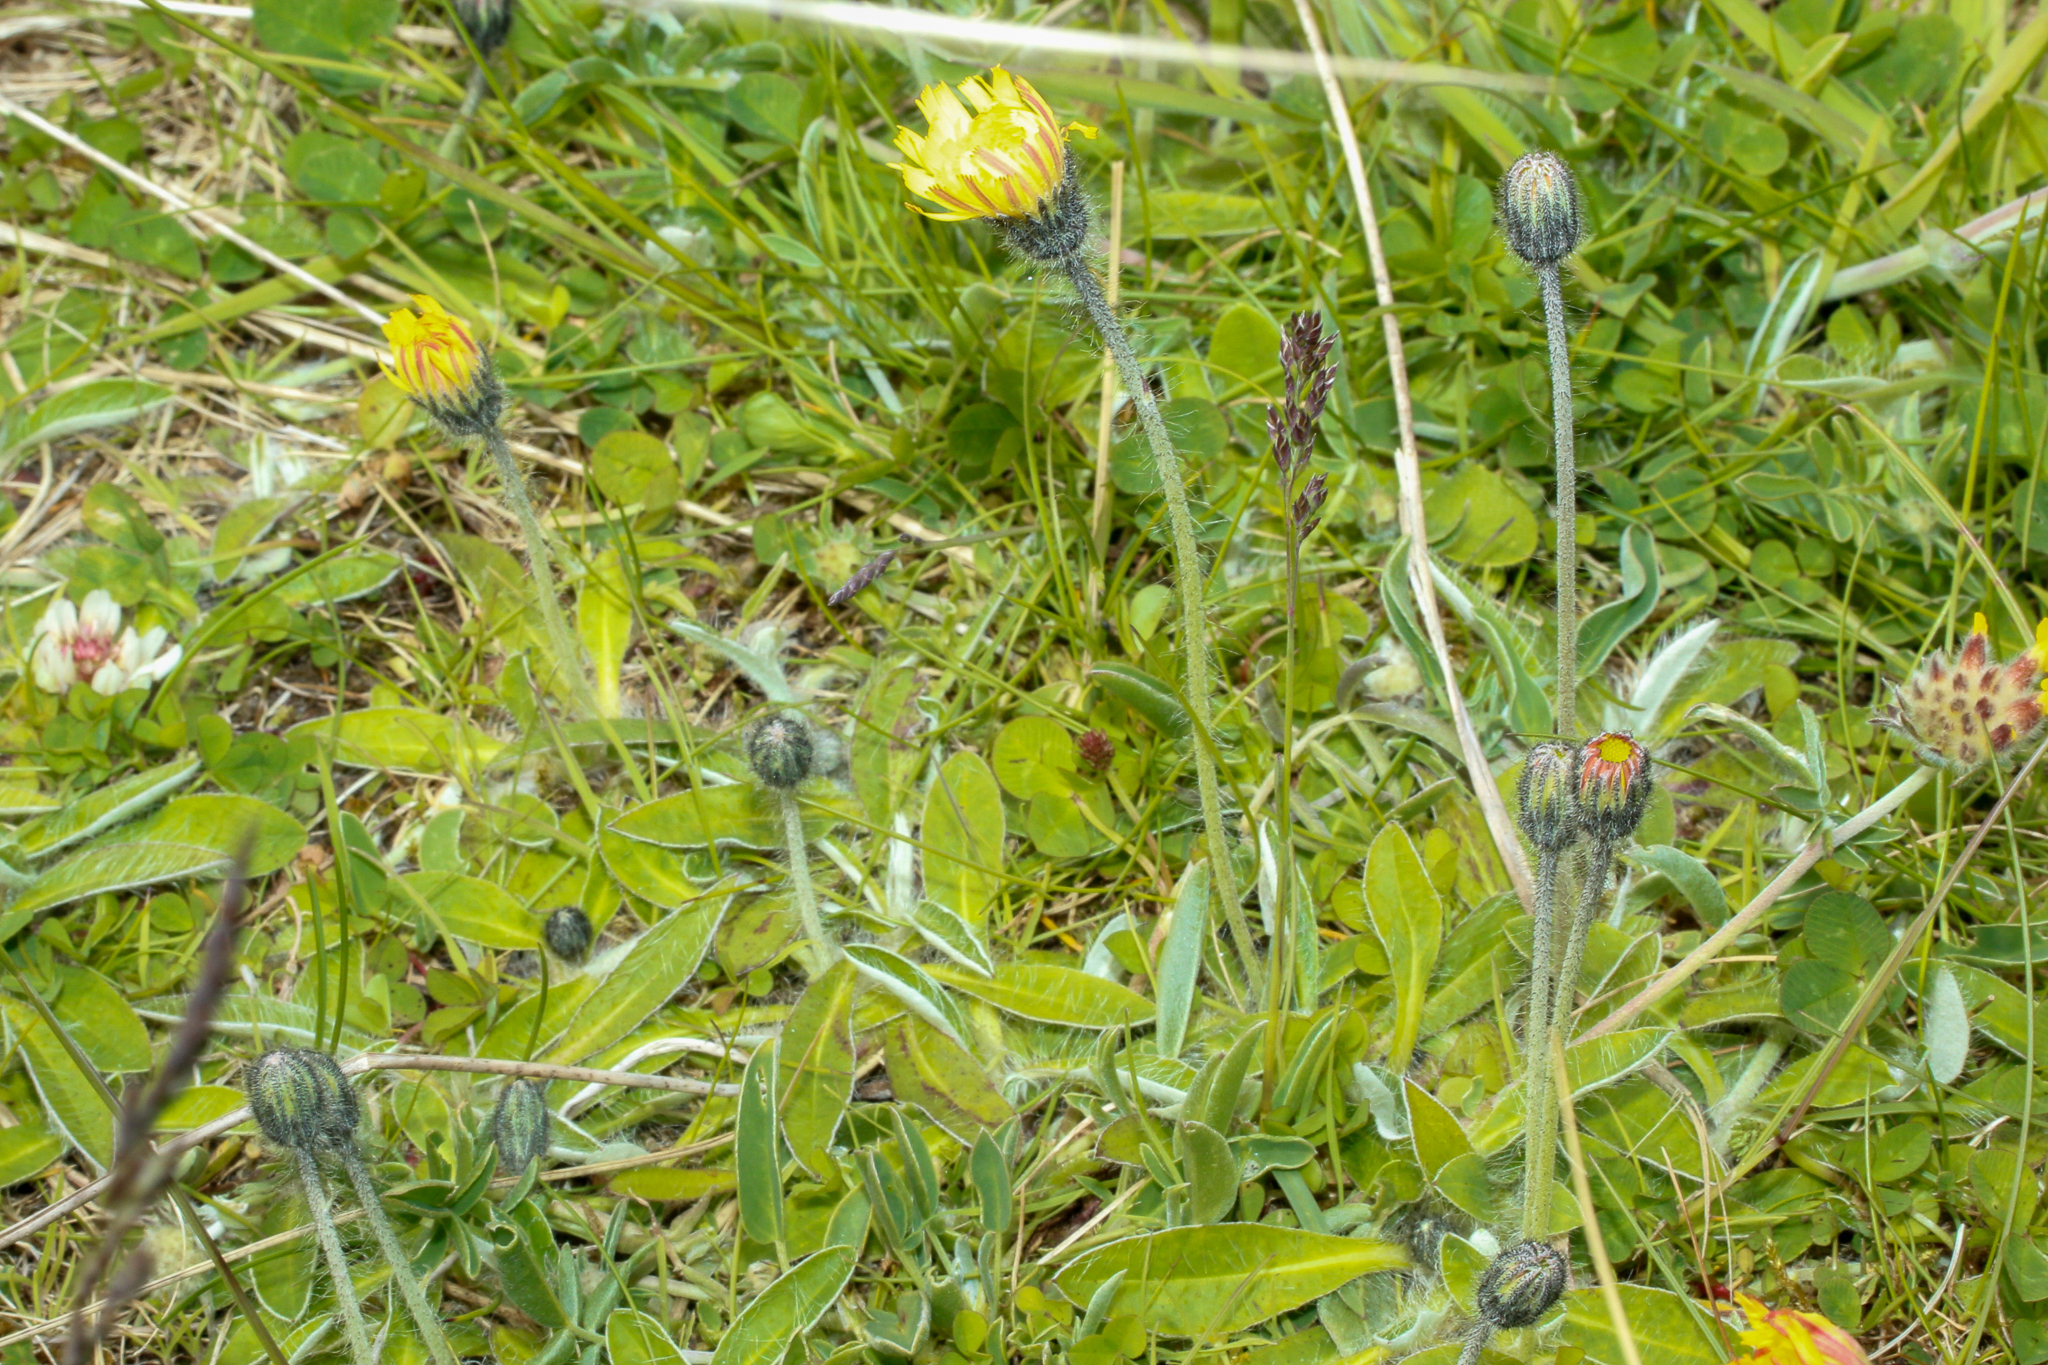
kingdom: Plantae
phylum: Tracheophyta
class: Magnoliopsida
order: Asterales
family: Asteraceae
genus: Pilosella
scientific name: Pilosella officinarum
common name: Mouse-ear hawkweed
